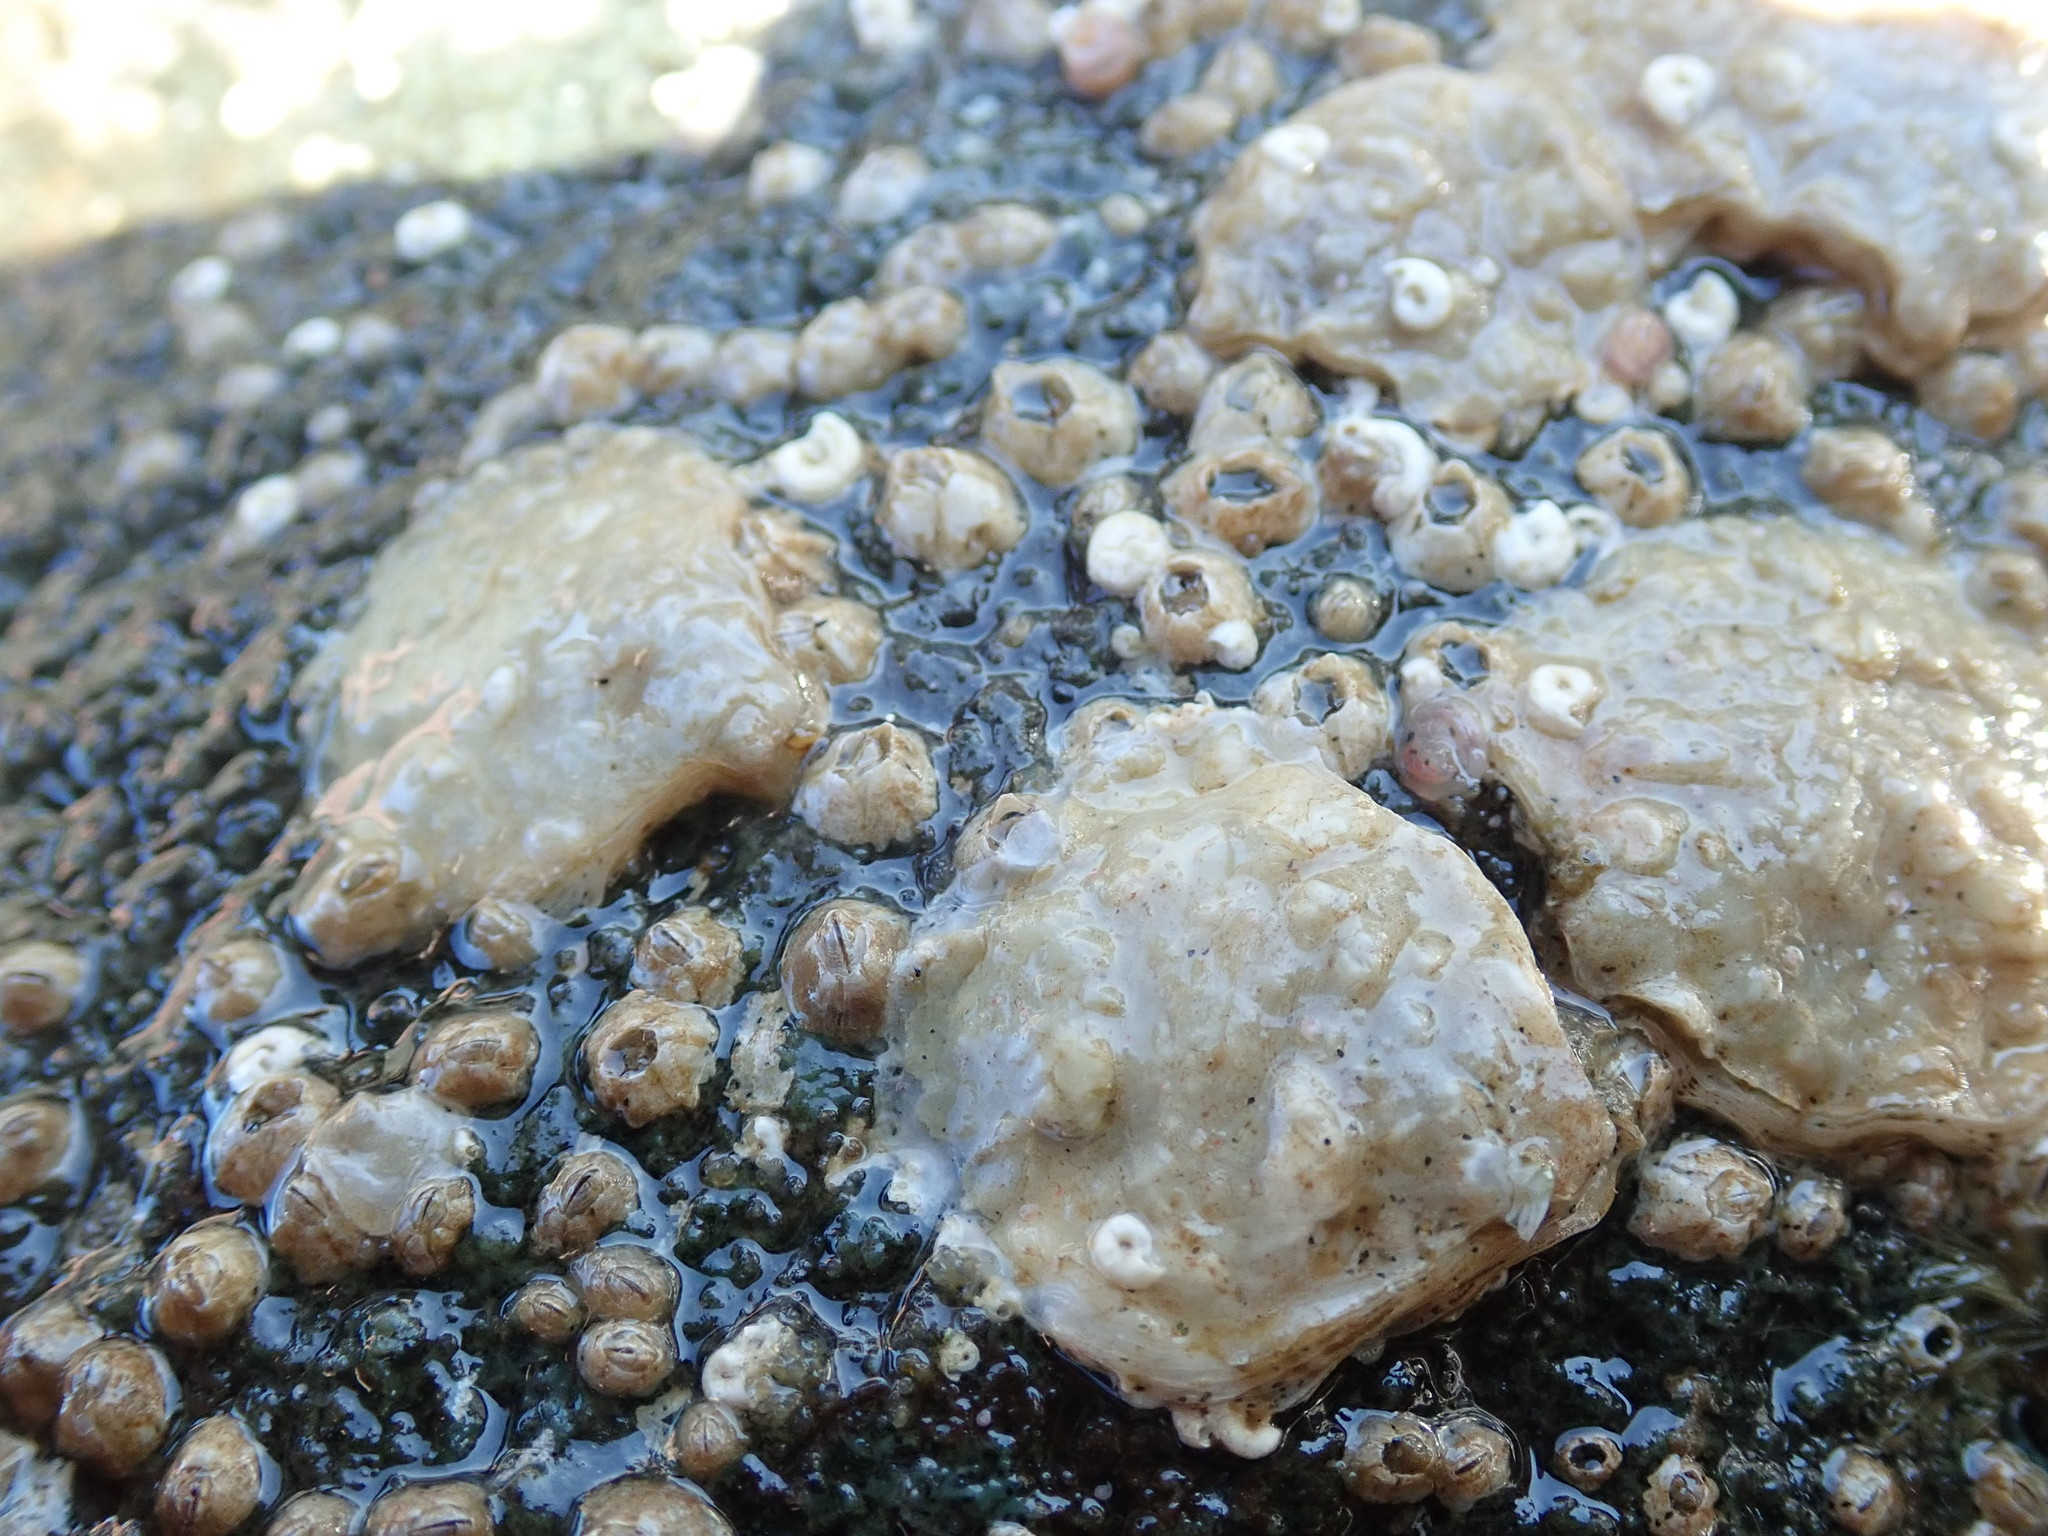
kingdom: Animalia
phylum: Mollusca
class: Bivalvia
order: Pectinida
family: Anomiidae
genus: Pododesmus
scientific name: Pododesmus macrochisma
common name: Alaska jingle
